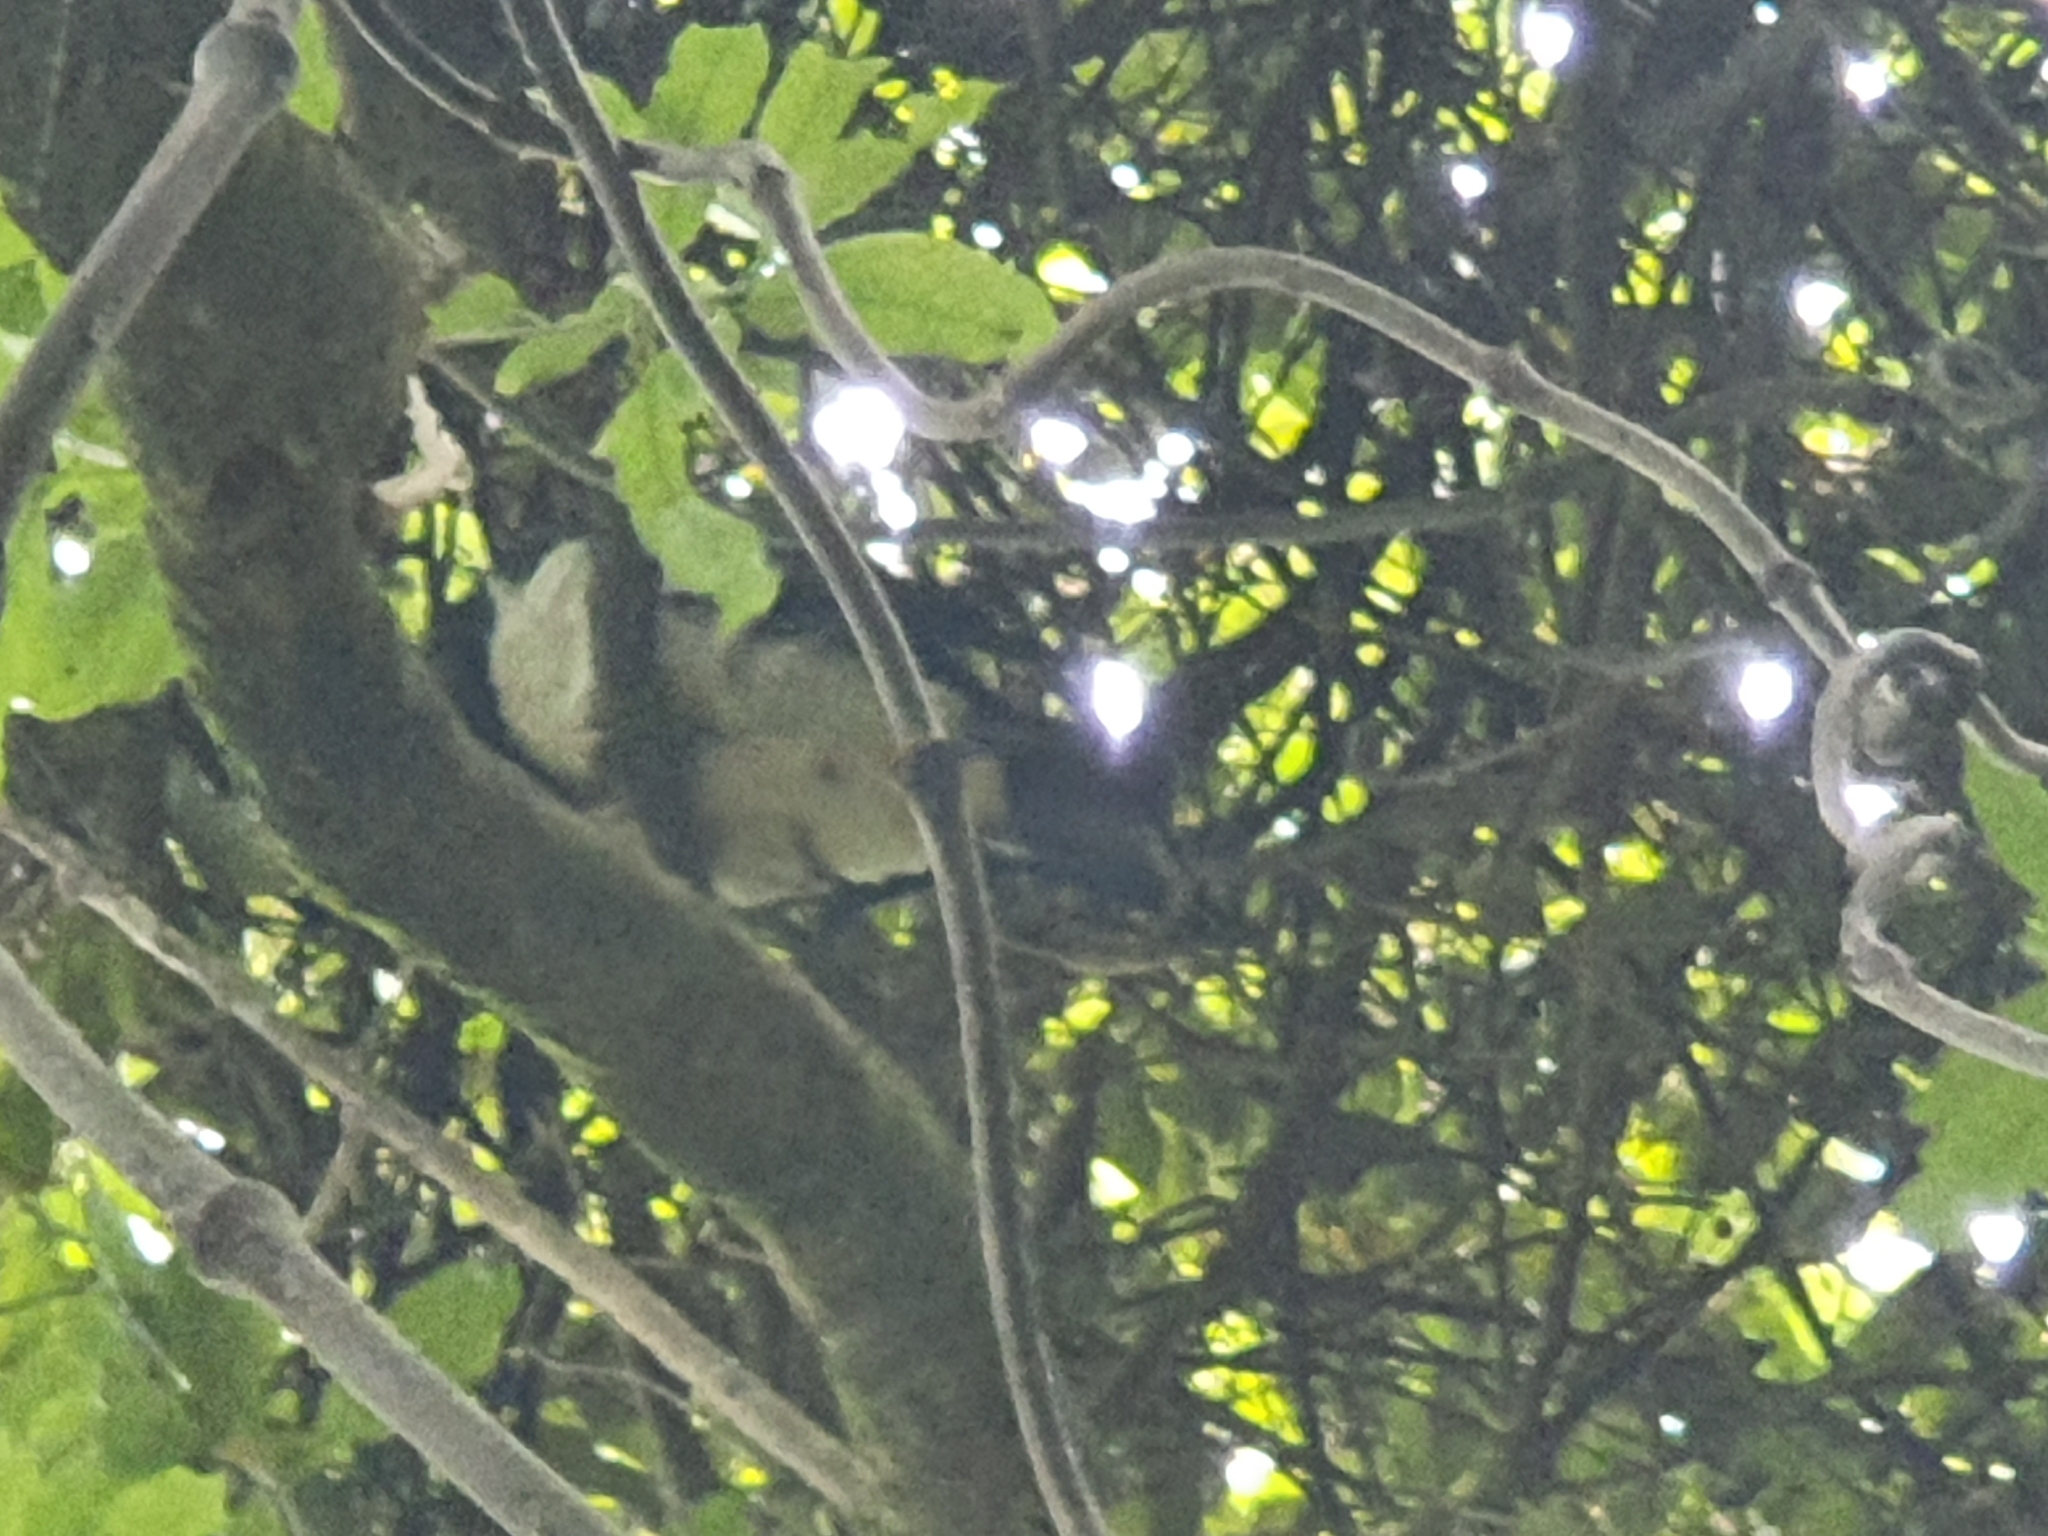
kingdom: Animalia
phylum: Chordata
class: Aves
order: Columbiformes
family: Columbidae
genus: Hemiphaga
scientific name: Hemiphaga novaeseelandiae
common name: New zealand pigeon
